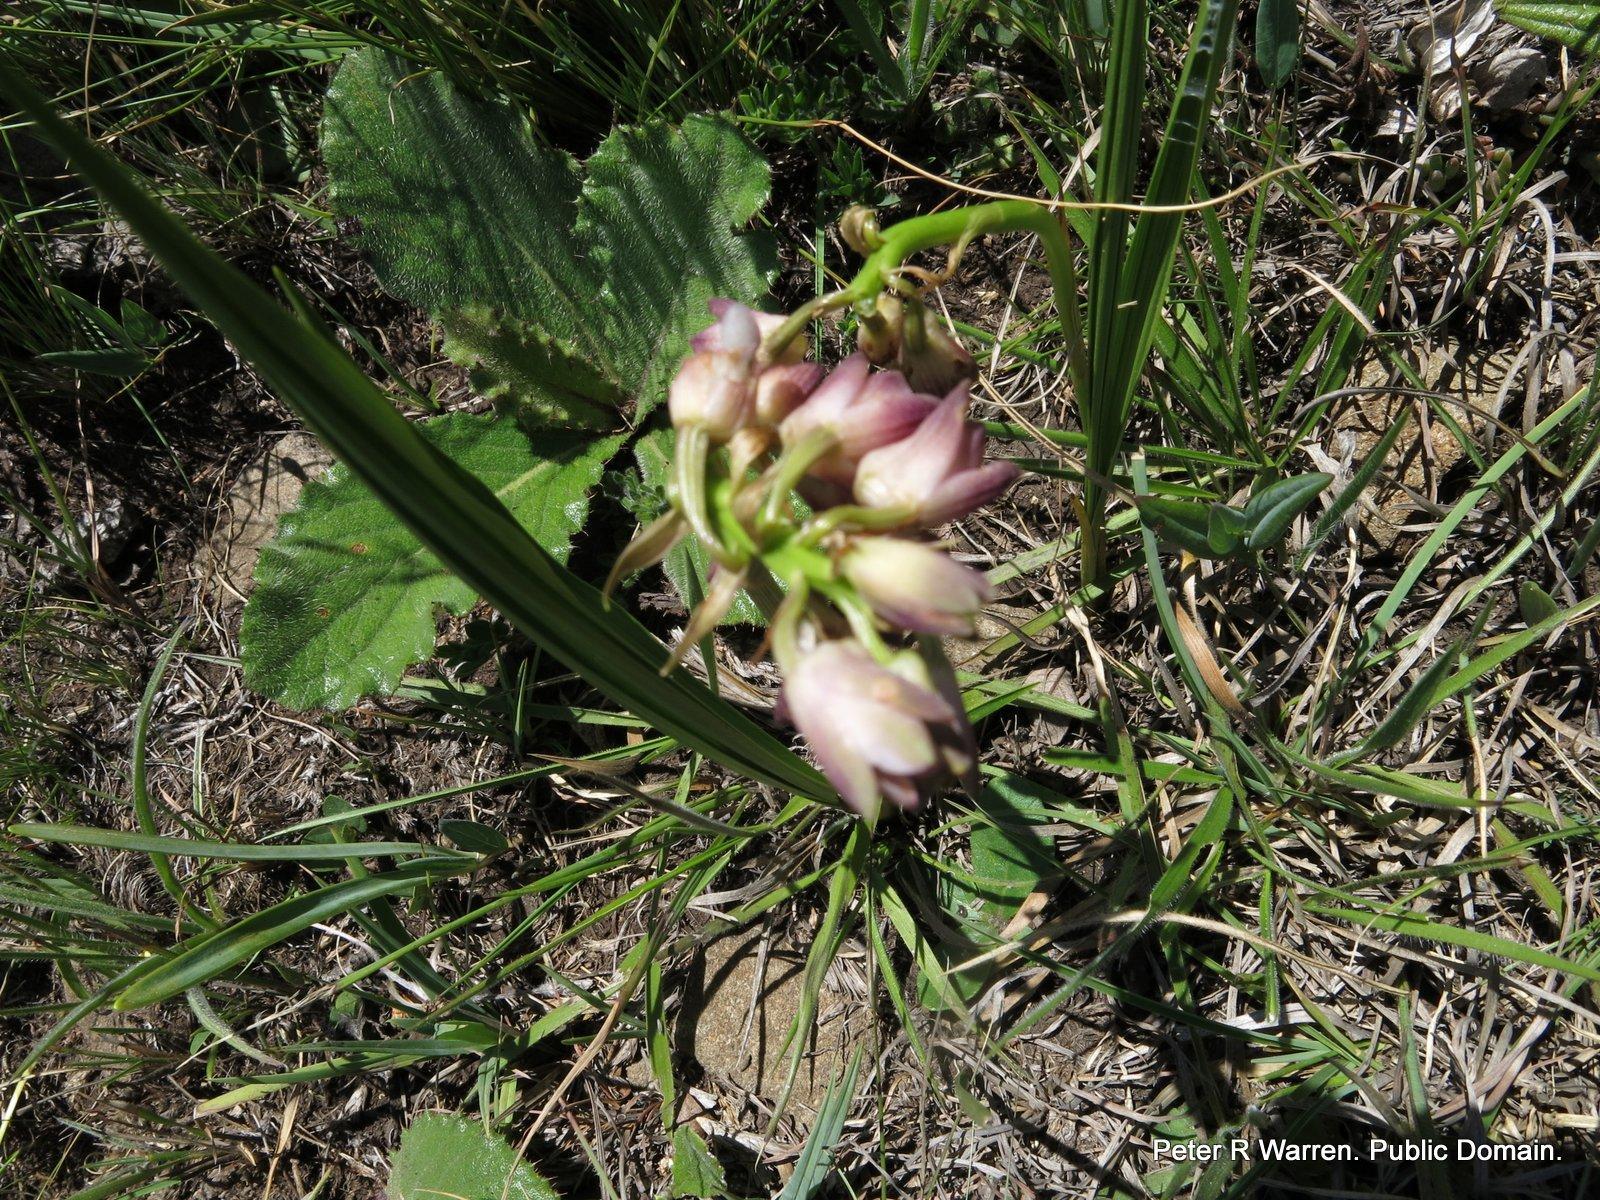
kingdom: Plantae
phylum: Tracheophyta
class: Liliopsida
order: Asparagales
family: Orchidaceae
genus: Eulophia
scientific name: Eulophia huttonii
